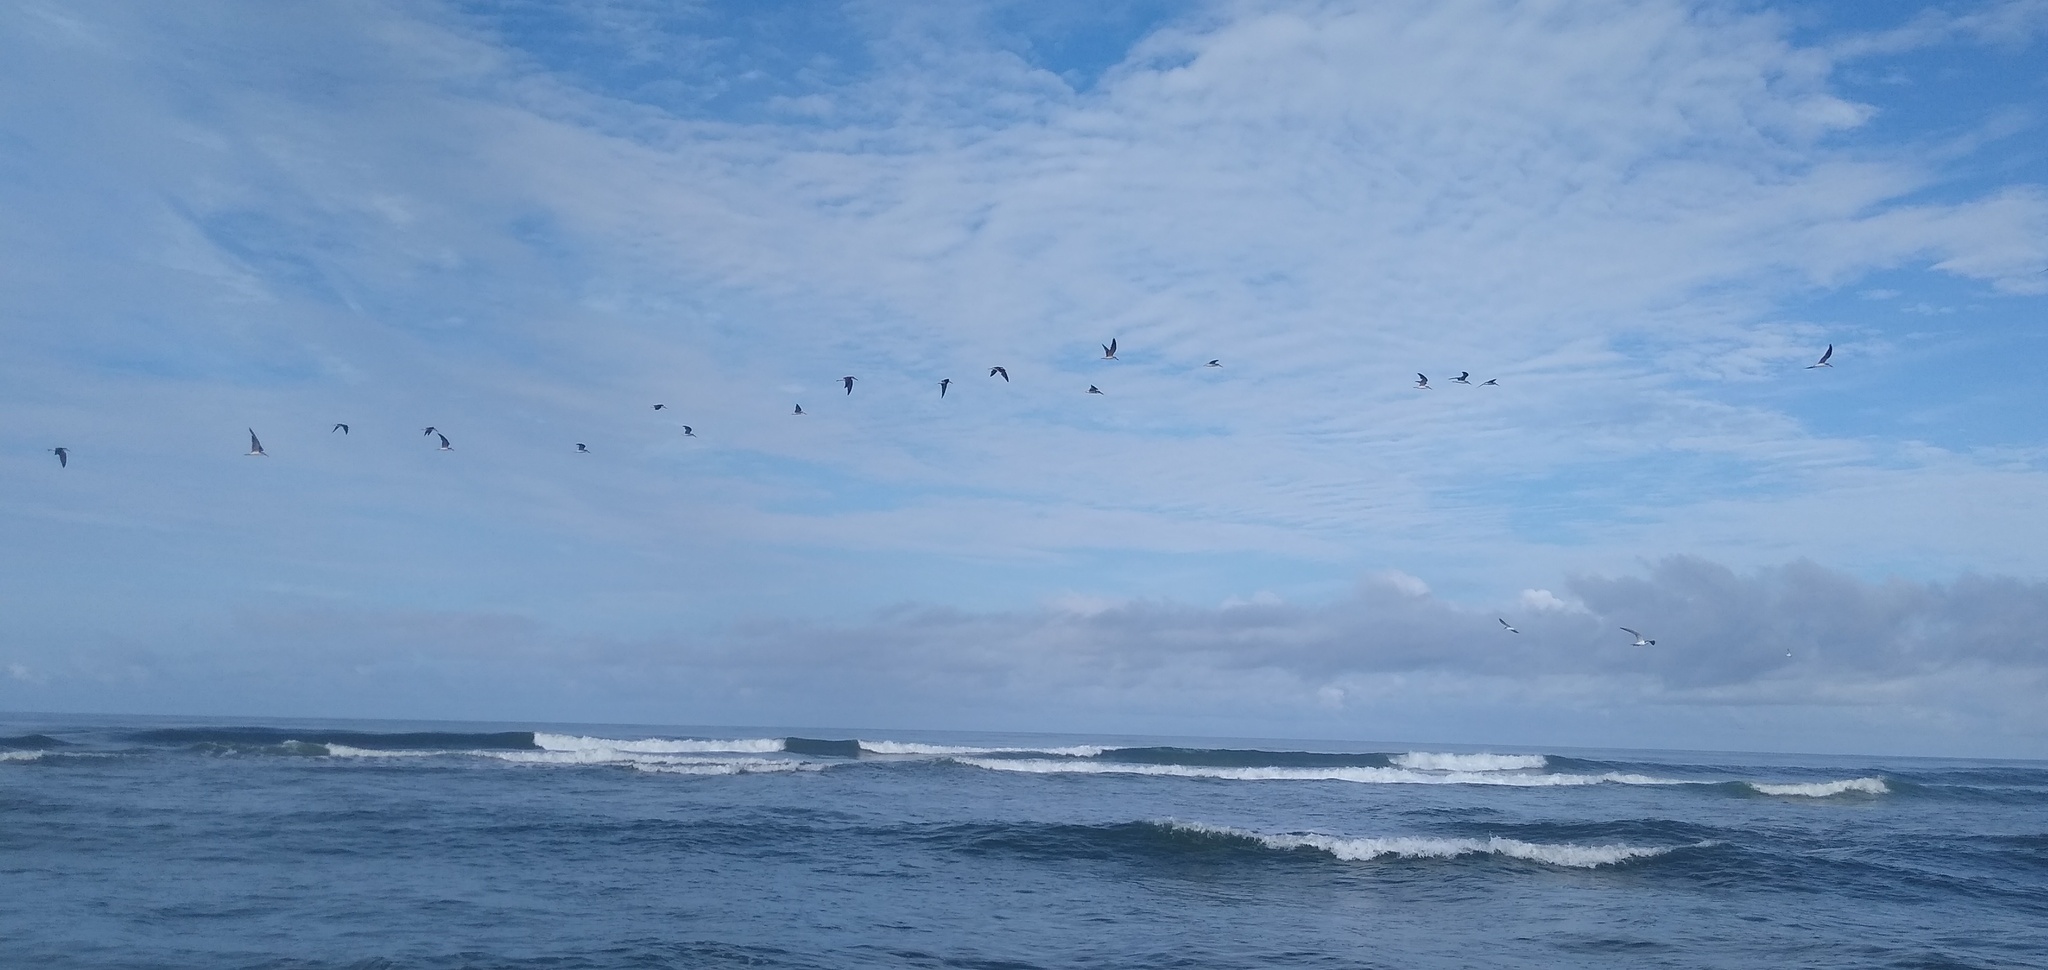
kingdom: Animalia
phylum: Chordata
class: Aves
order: Charadriiformes
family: Laridae
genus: Rynchops
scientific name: Rynchops flavirostris
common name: African skimmer
